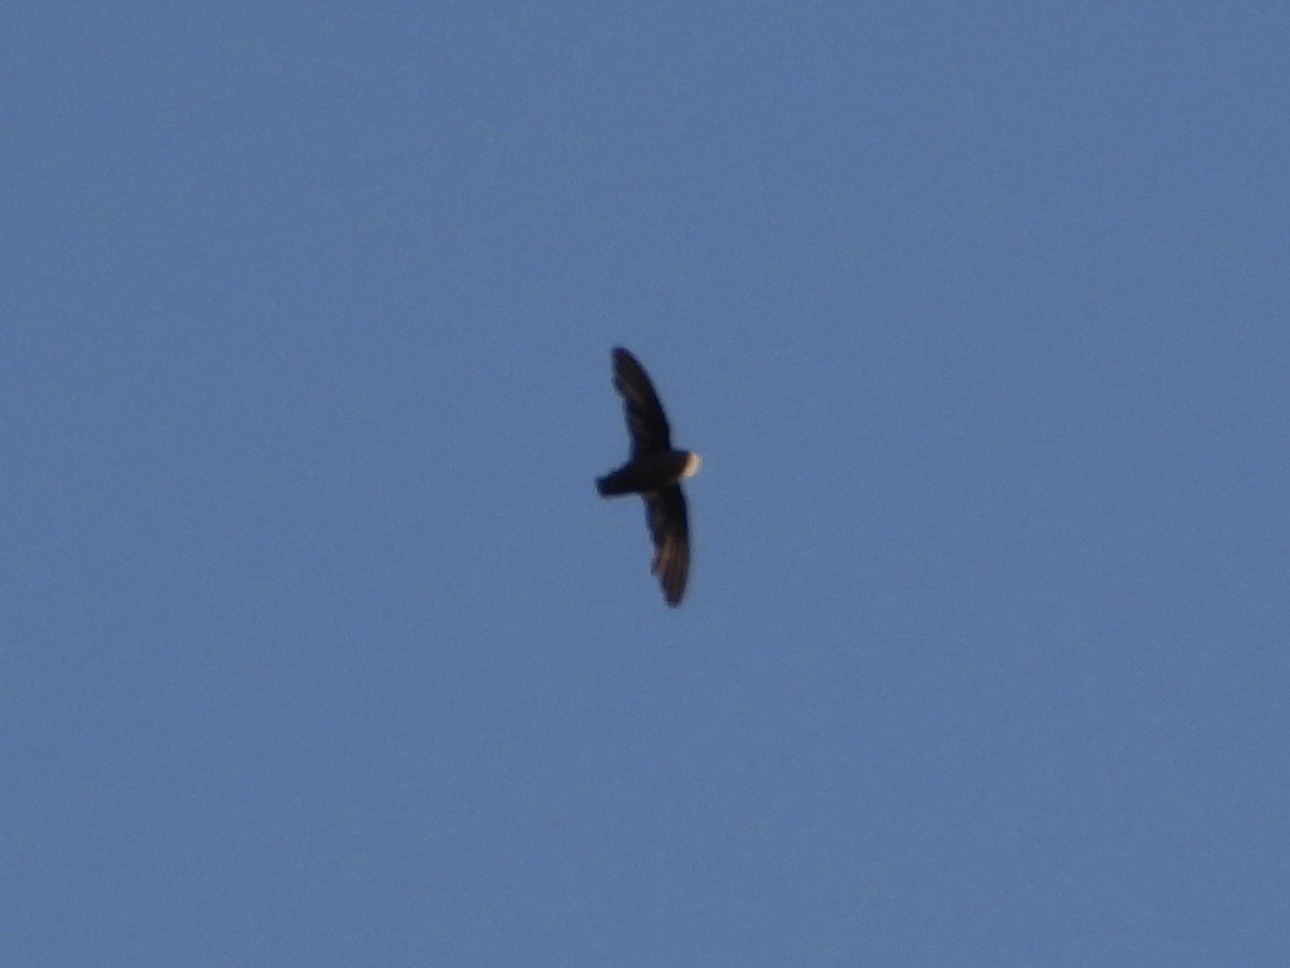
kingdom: Animalia
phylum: Chordata
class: Aves
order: Apodiformes
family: Apodidae
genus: Chaetura
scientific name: Chaetura vauxi
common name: Vaux's swift
